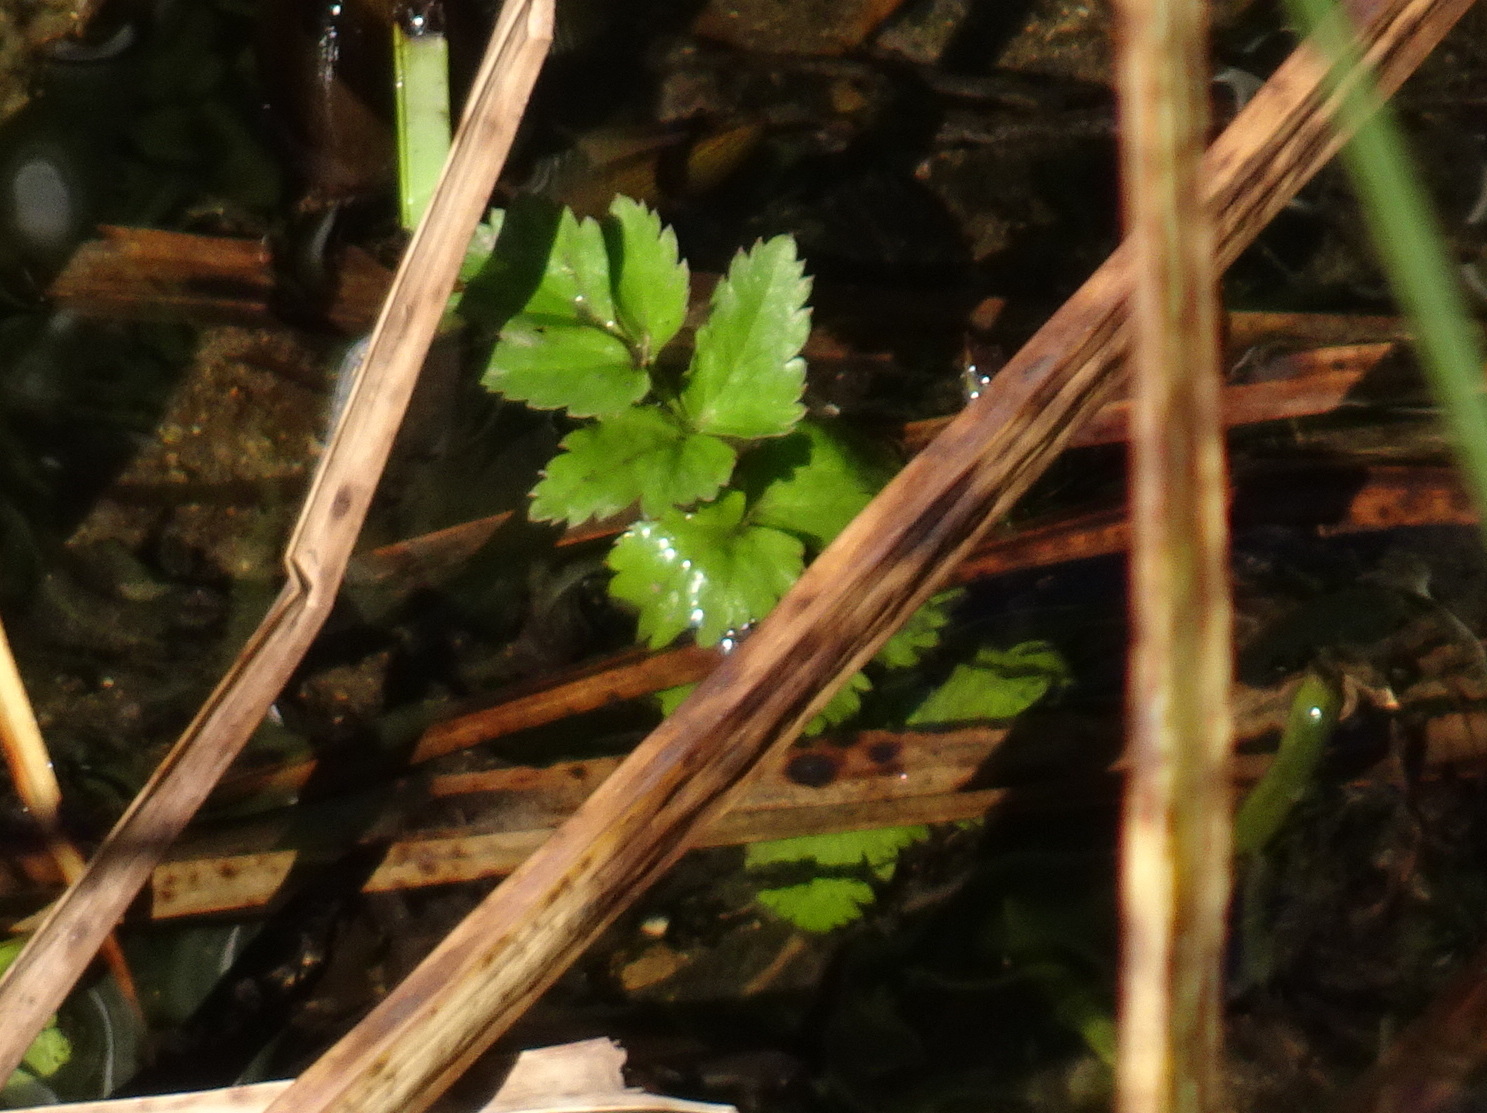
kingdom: Plantae
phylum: Tracheophyta
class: Magnoliopsida
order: Apiales
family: Apiaceae
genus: Oenanthe
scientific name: Oenanthe sarmentosa
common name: American water-parsley
